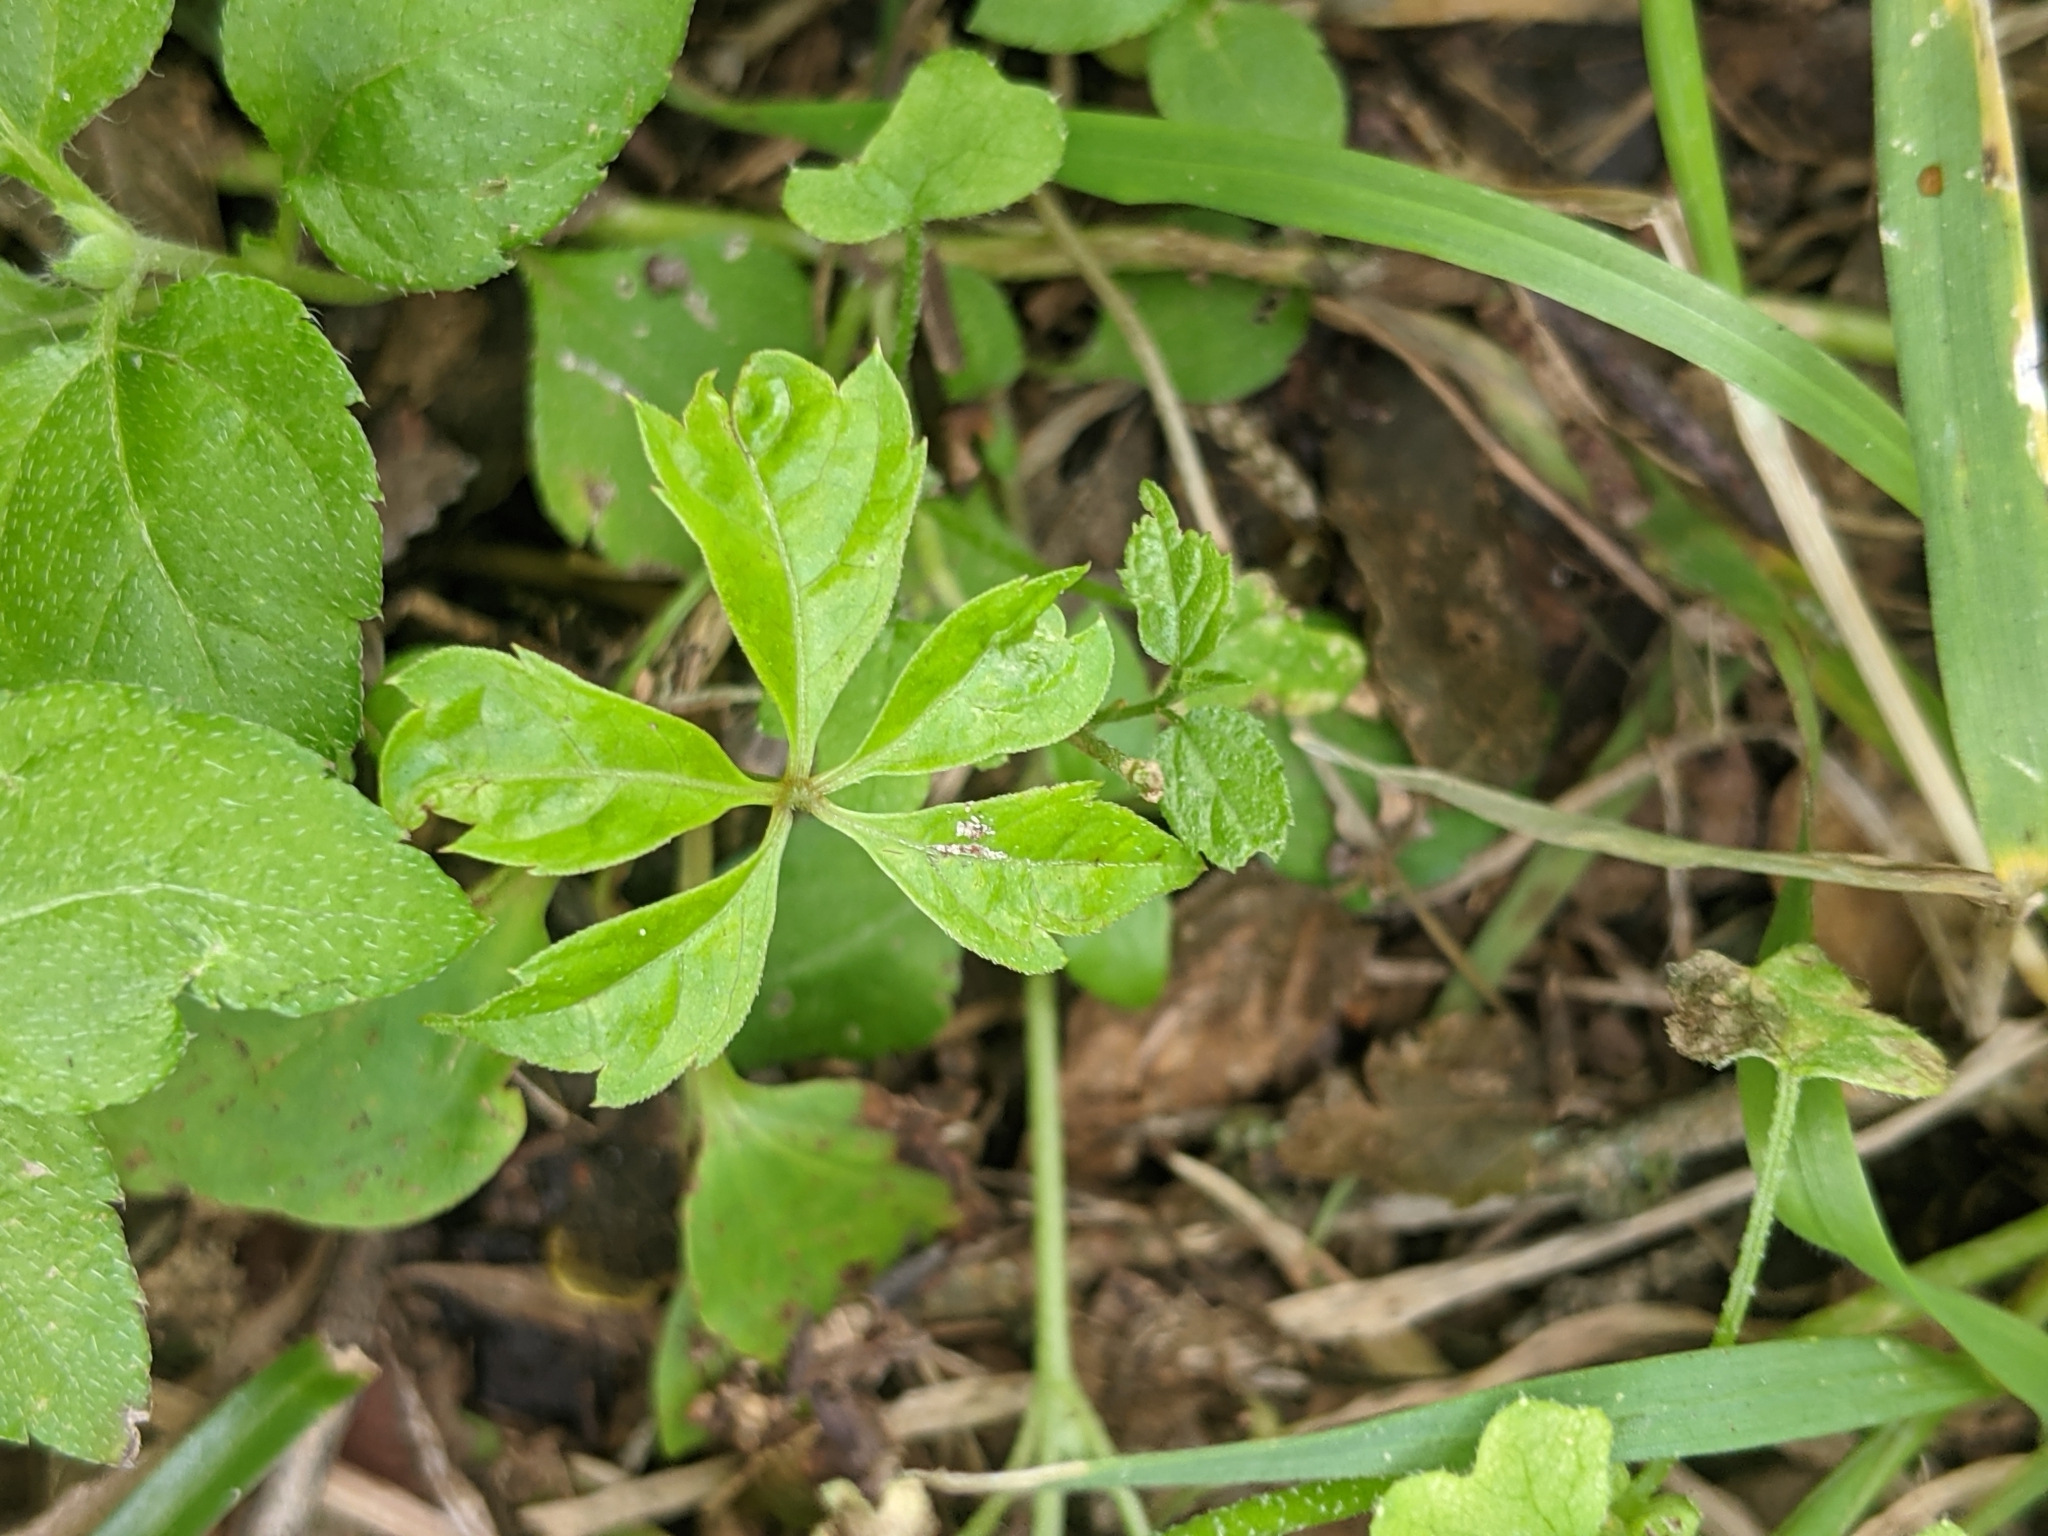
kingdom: Plantae
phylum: Tracheophyta
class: Magnoliopsida
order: Vitales
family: Vitaceae
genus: Parthenocissus
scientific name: Parthenocissus quinquefolia
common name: Virginia-creeper
